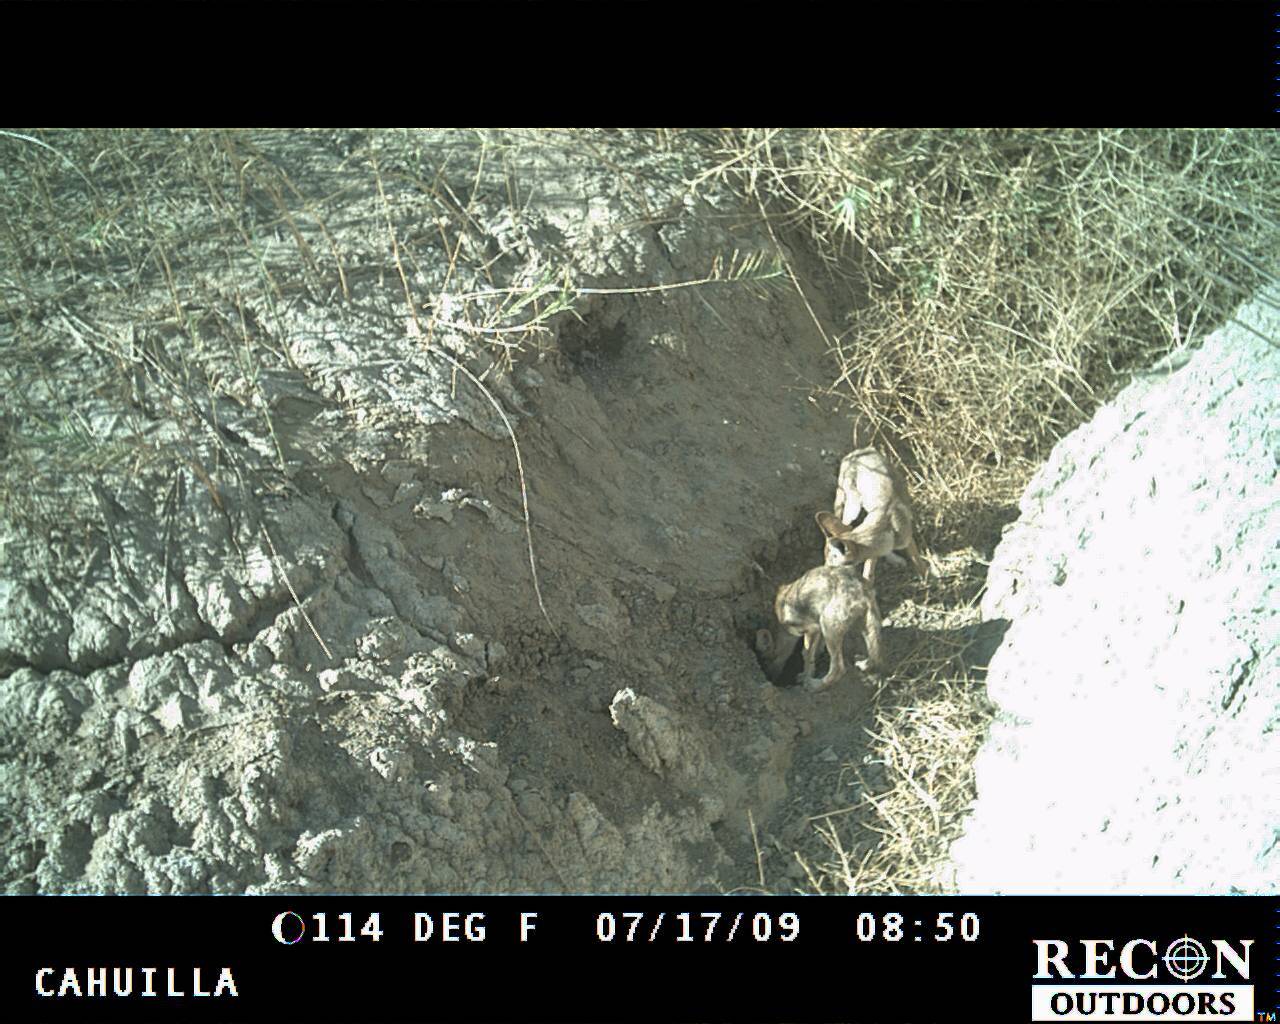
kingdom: Animalia
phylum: Chordata
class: Mammalia
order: Carnivora
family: Canidae
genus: Canis
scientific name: Canis latrans
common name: Coyote
